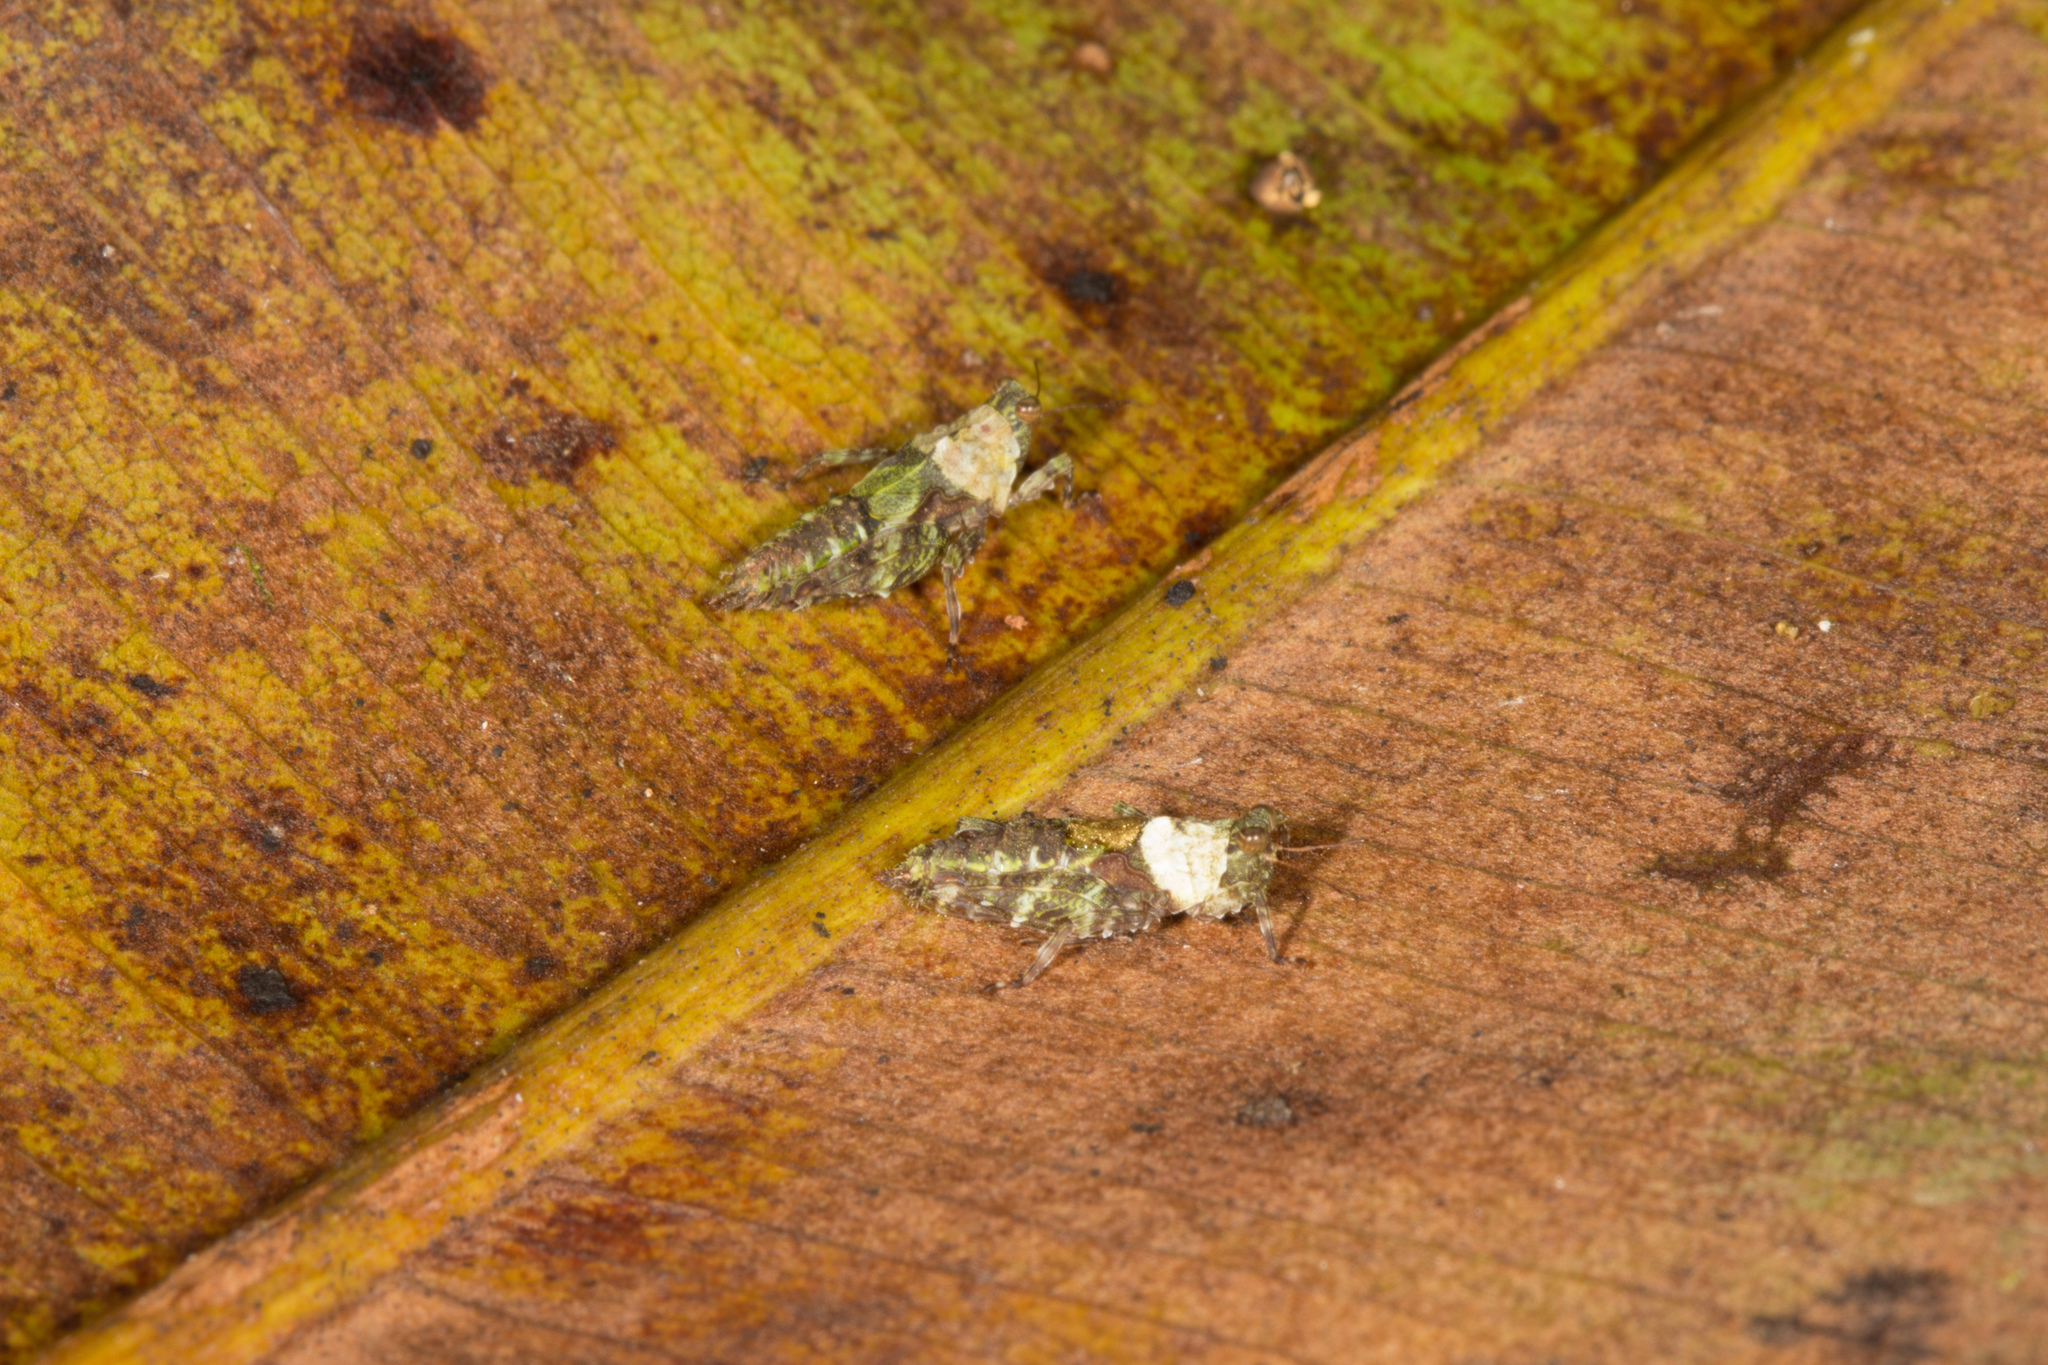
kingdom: Animalia
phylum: Arthropoda
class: Insecta
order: Orthoptera
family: Tetrigidae
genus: Amphinotus
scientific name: Amphinotus nymphula
